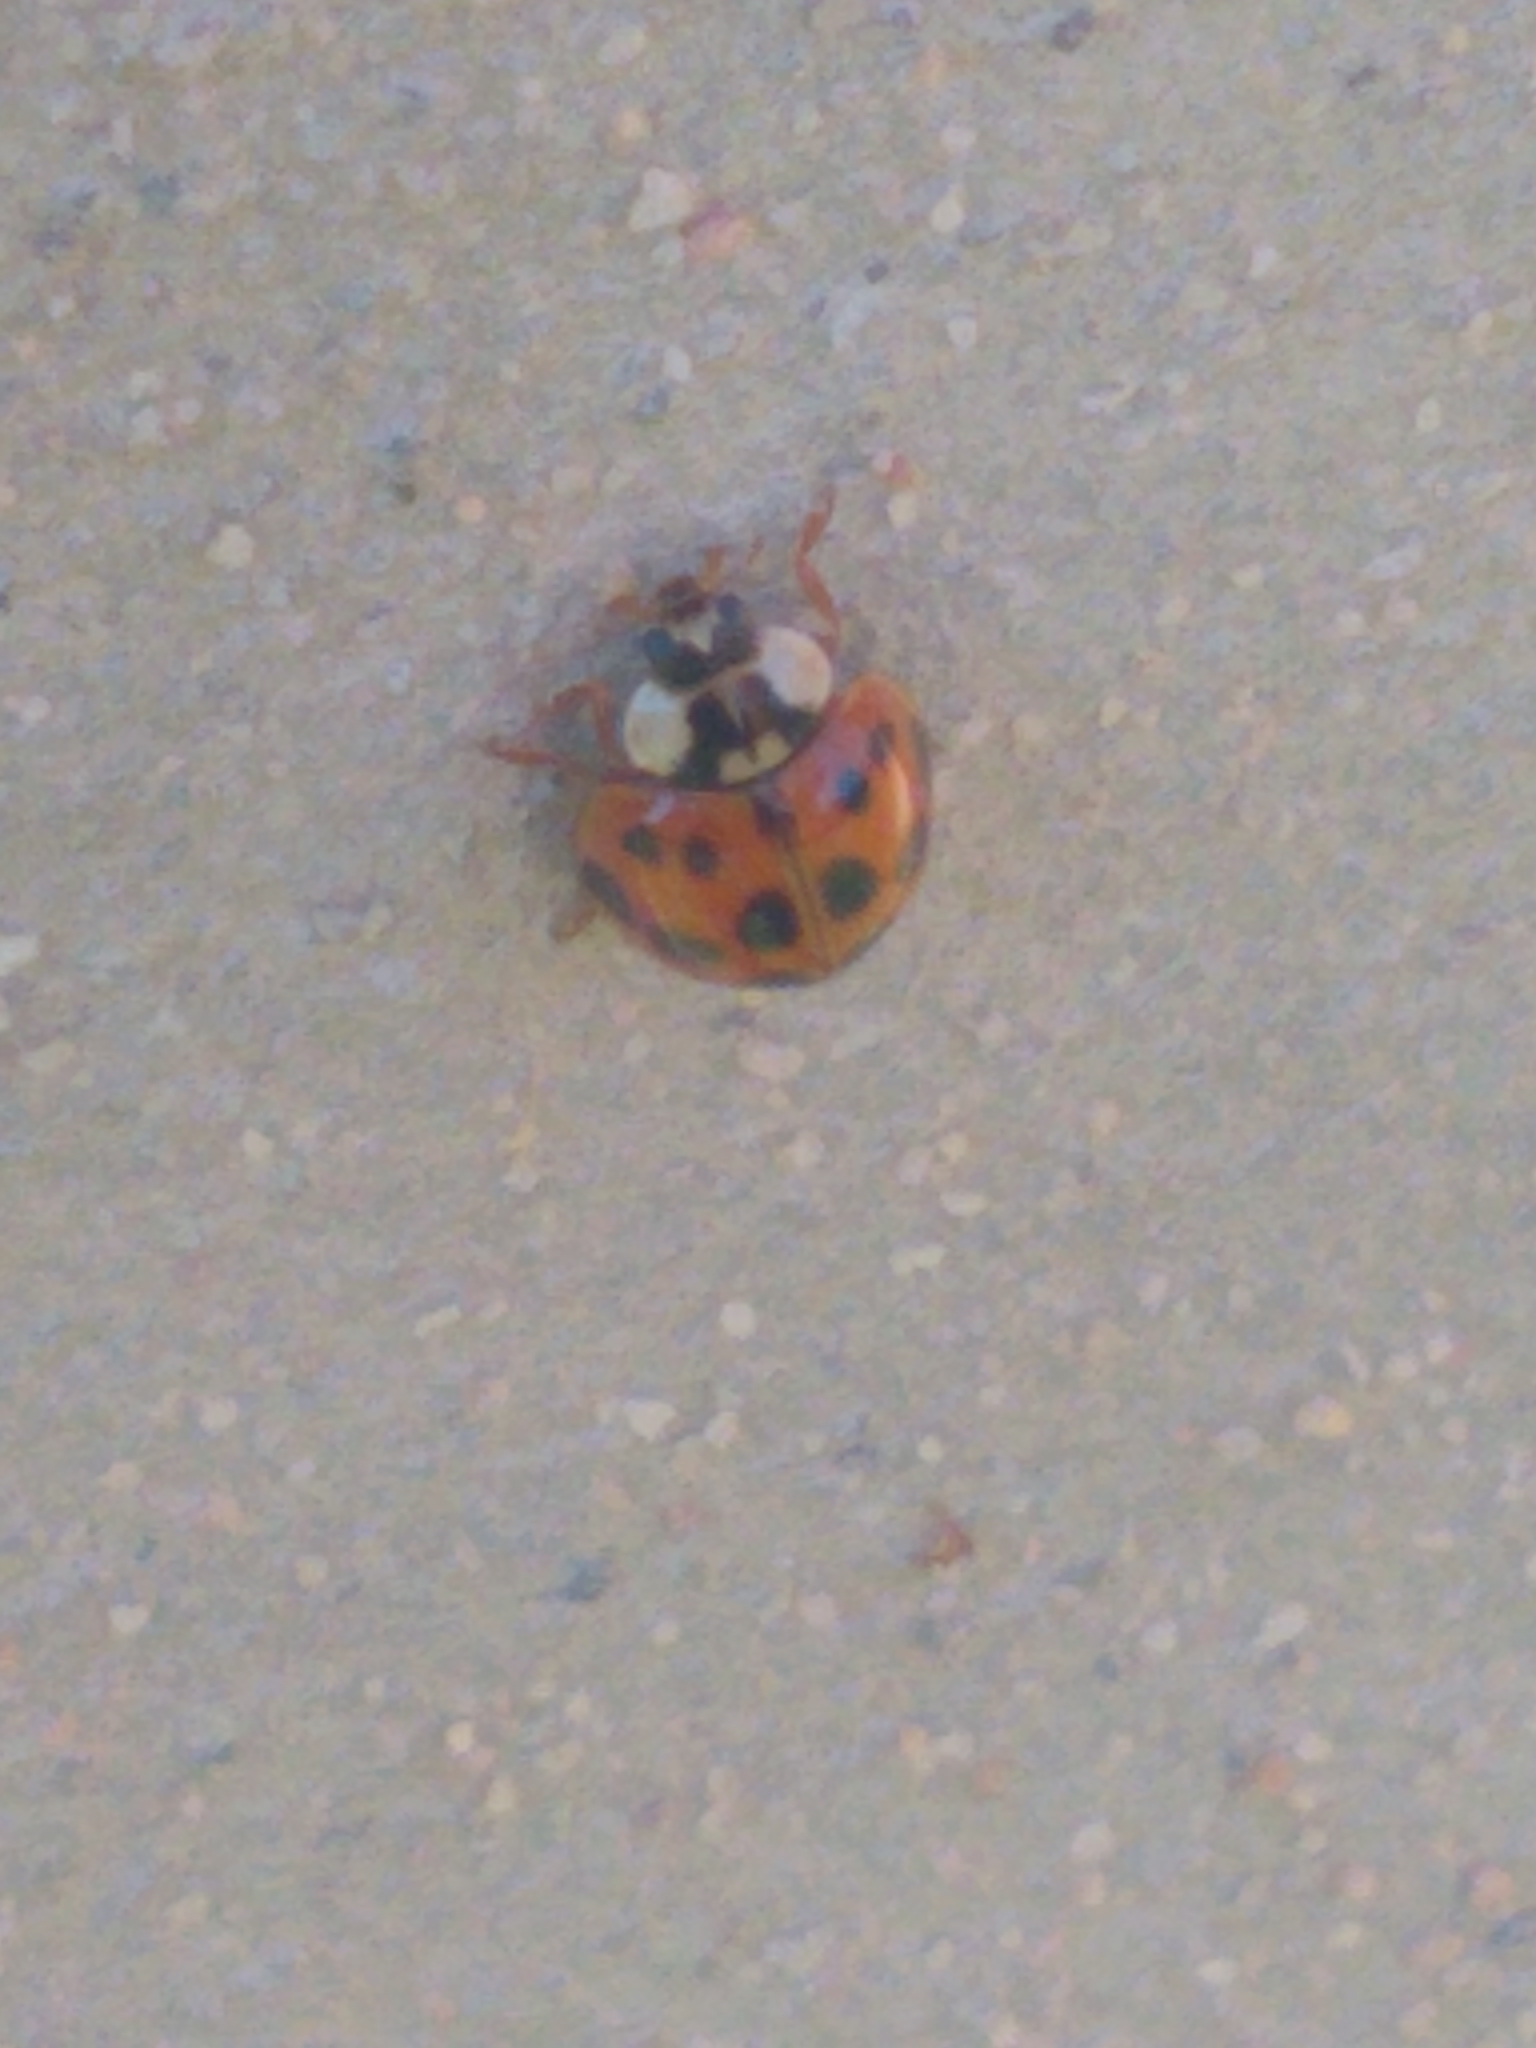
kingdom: Animalia
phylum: Arthropoda
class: Insecta
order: Coleoptera
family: Coccinellidae
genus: Harmonia
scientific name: Harmonia axyridis
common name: Harlequin ladybird
